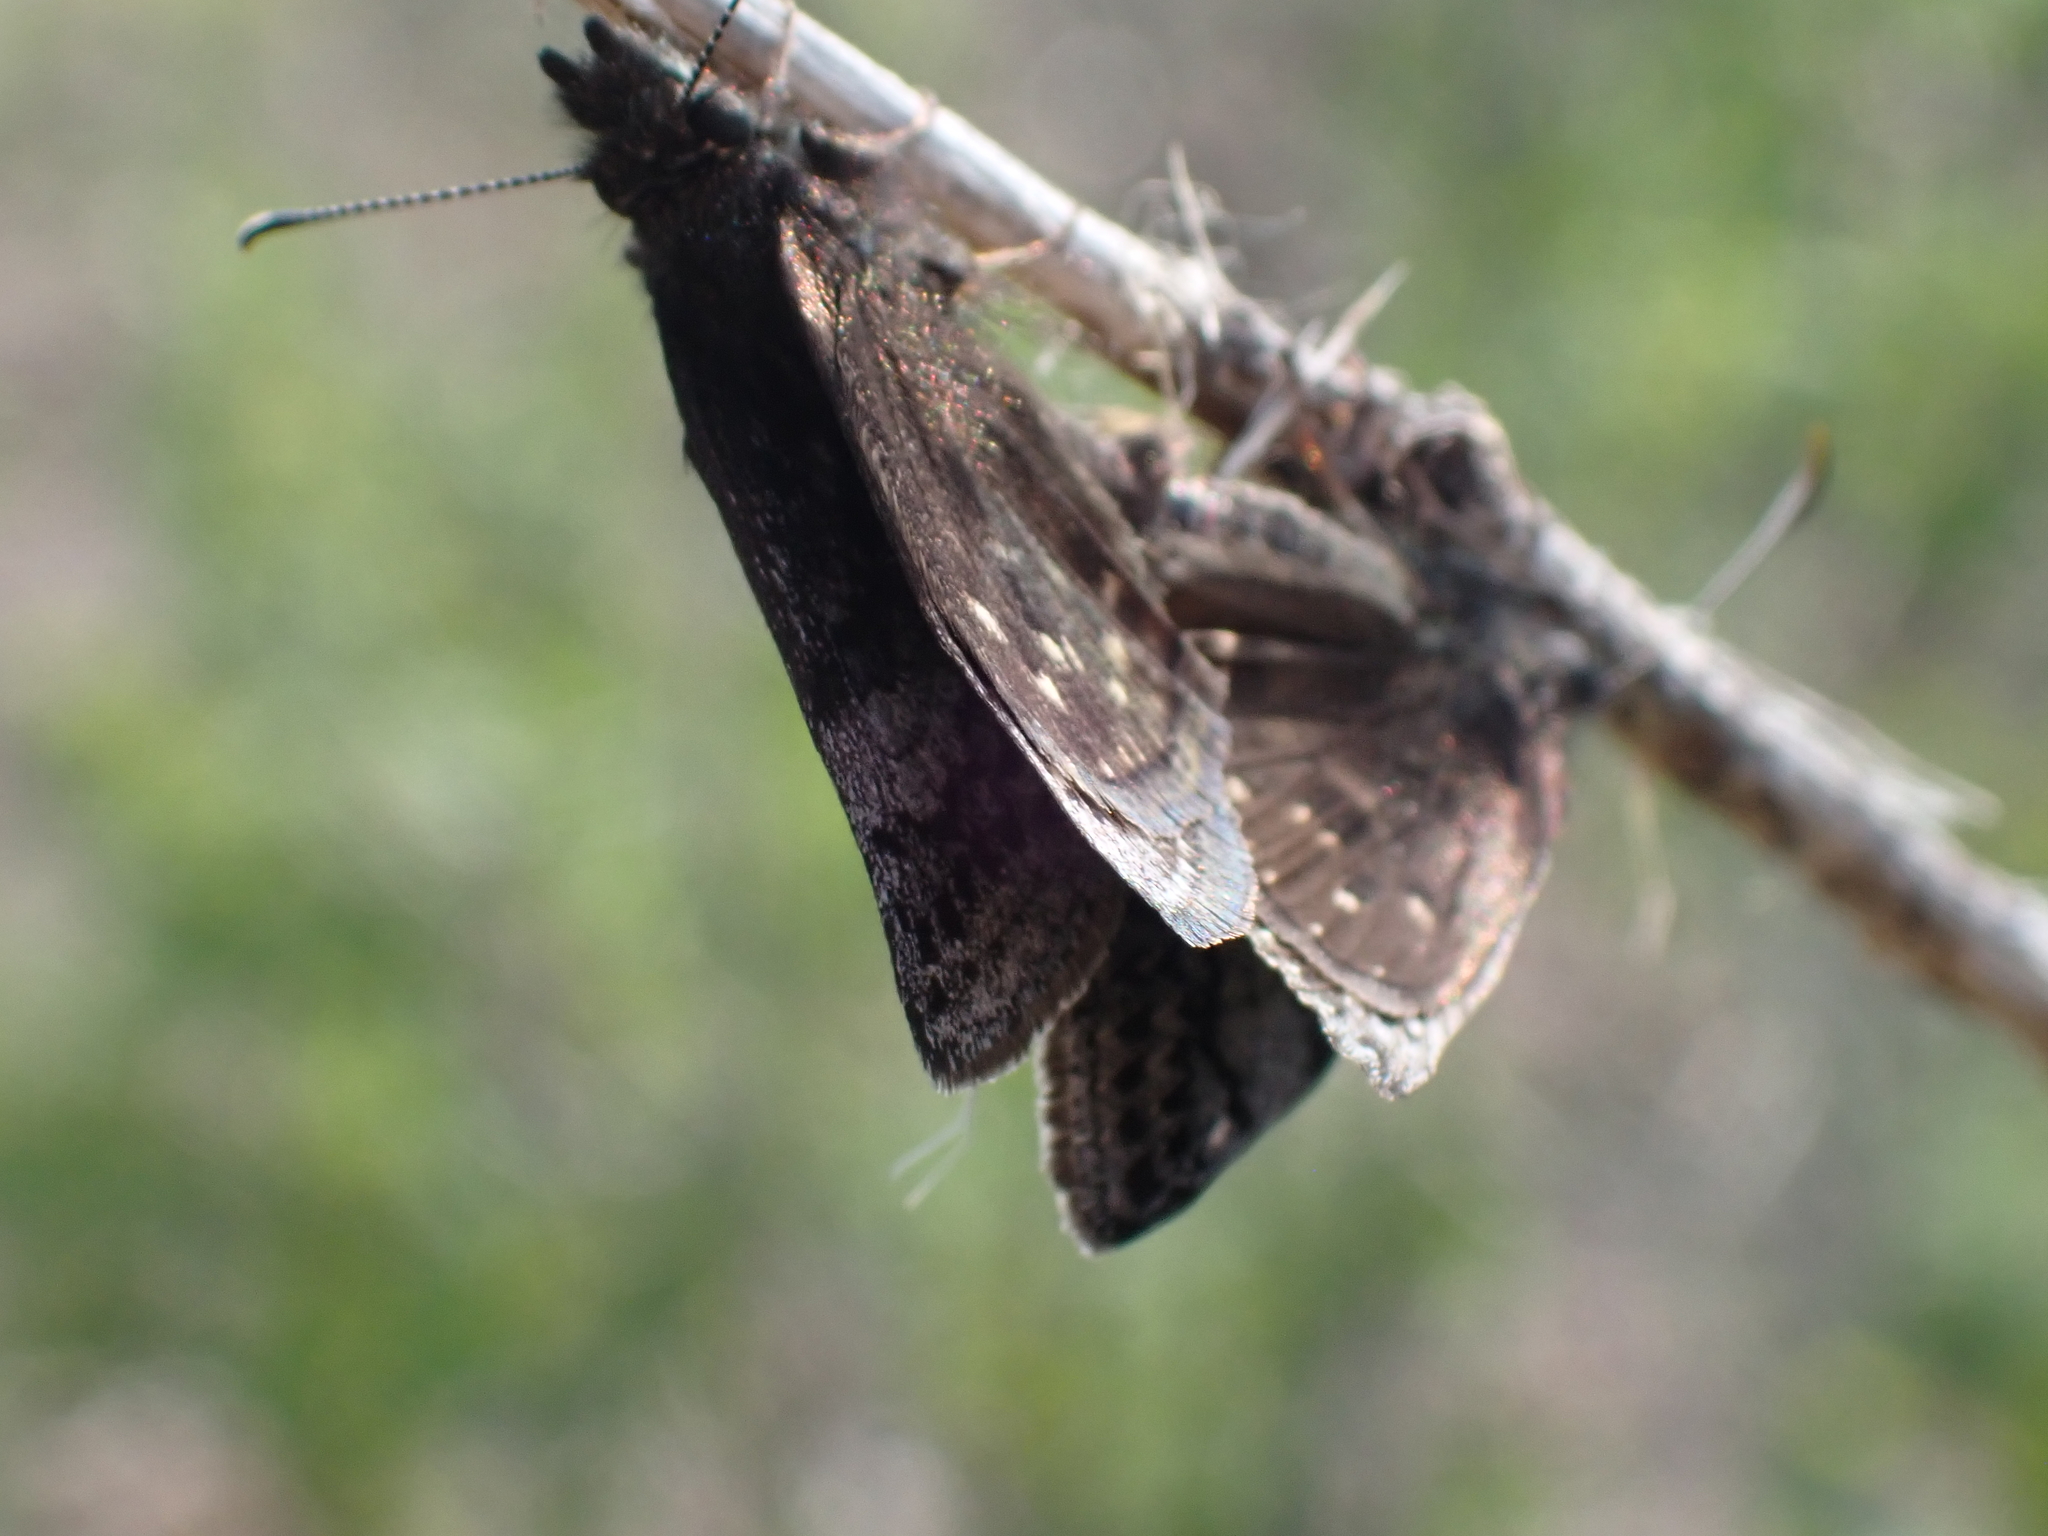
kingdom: Animalia
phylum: Arthropoda
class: Insecta
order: Lepidoptera
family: Hesperiidae
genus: Erynnis
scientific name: Erynnis icelus
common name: Dreamy duskywing
